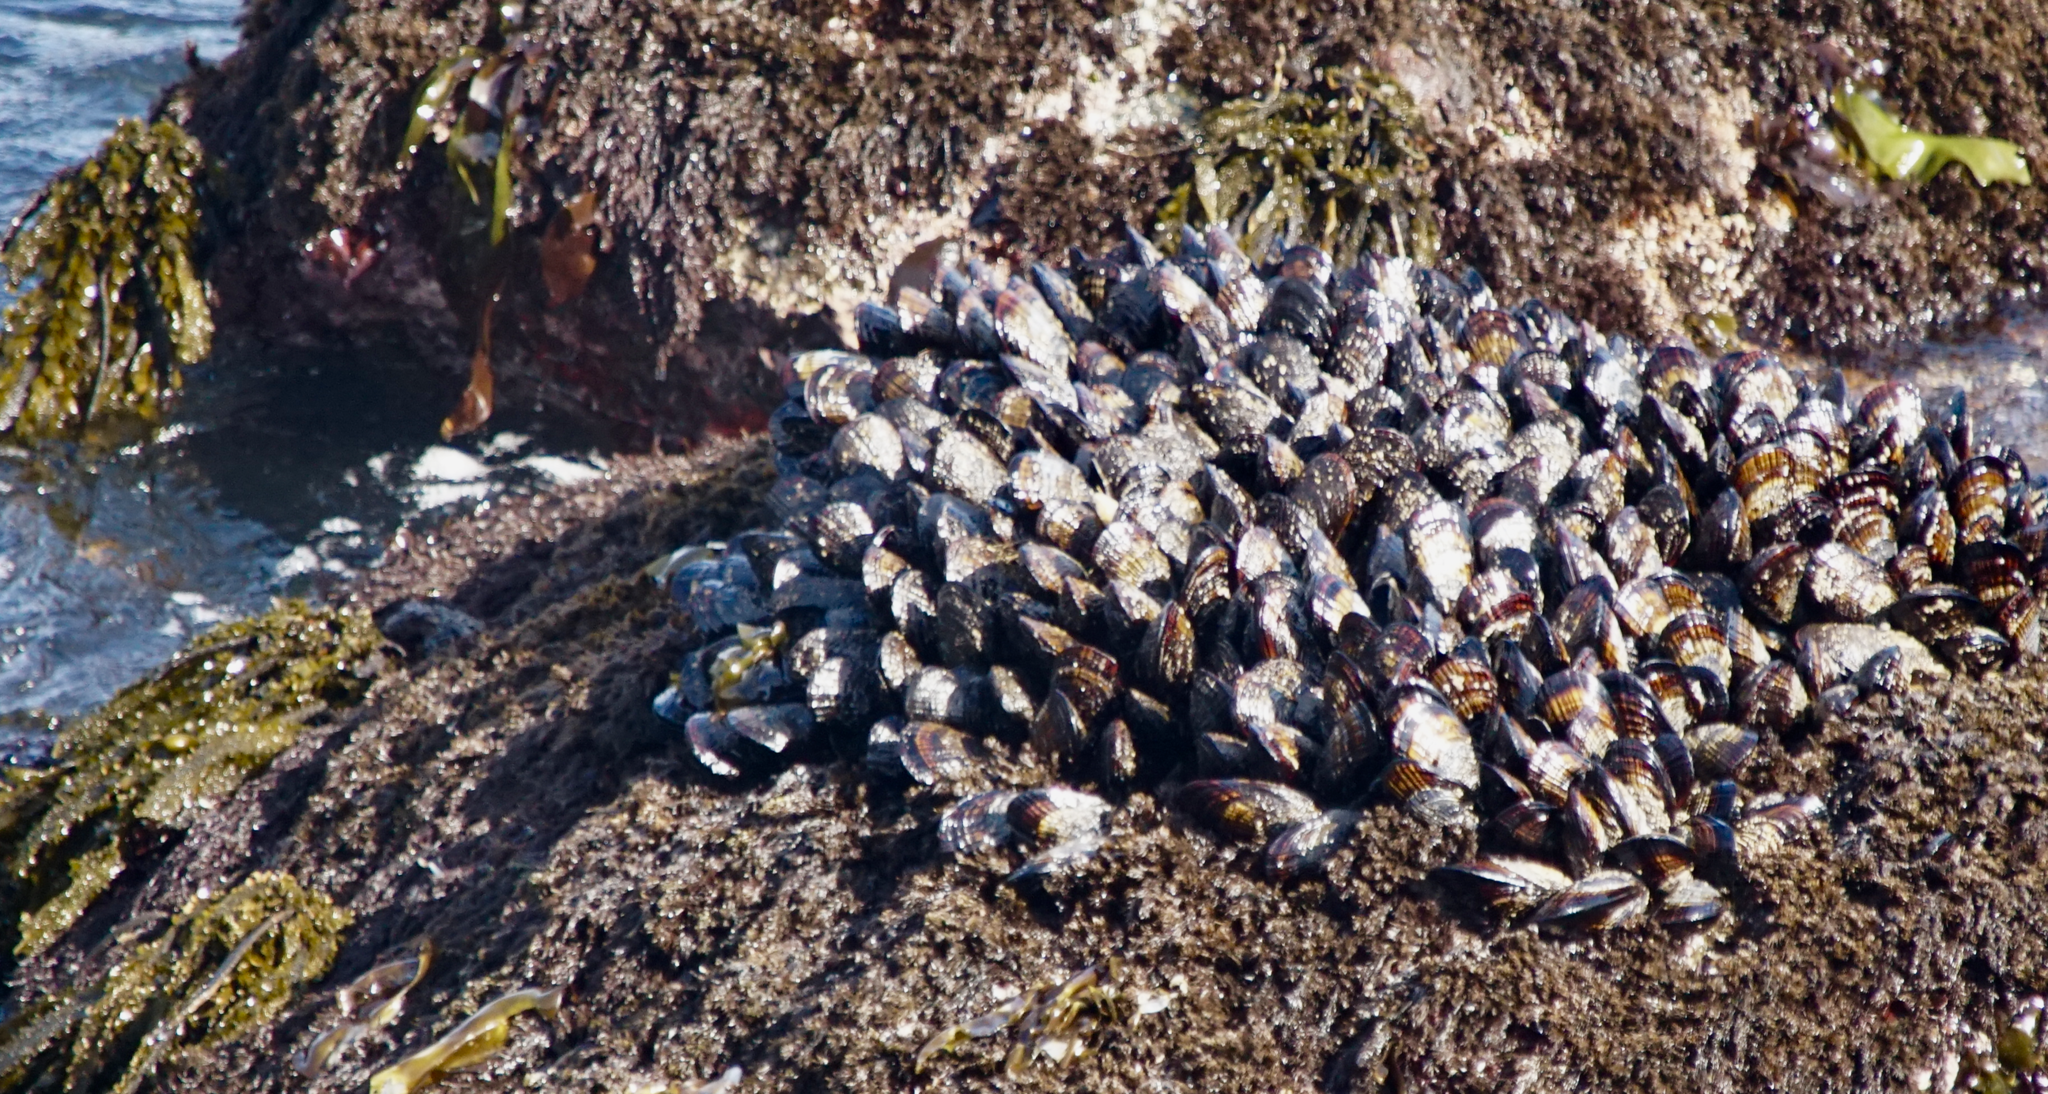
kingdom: Animalia
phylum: Mollusca
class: Bivalvia
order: Mytilida
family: Mytilidae
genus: Mytilus
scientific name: Mytilus californianus
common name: California mussel
